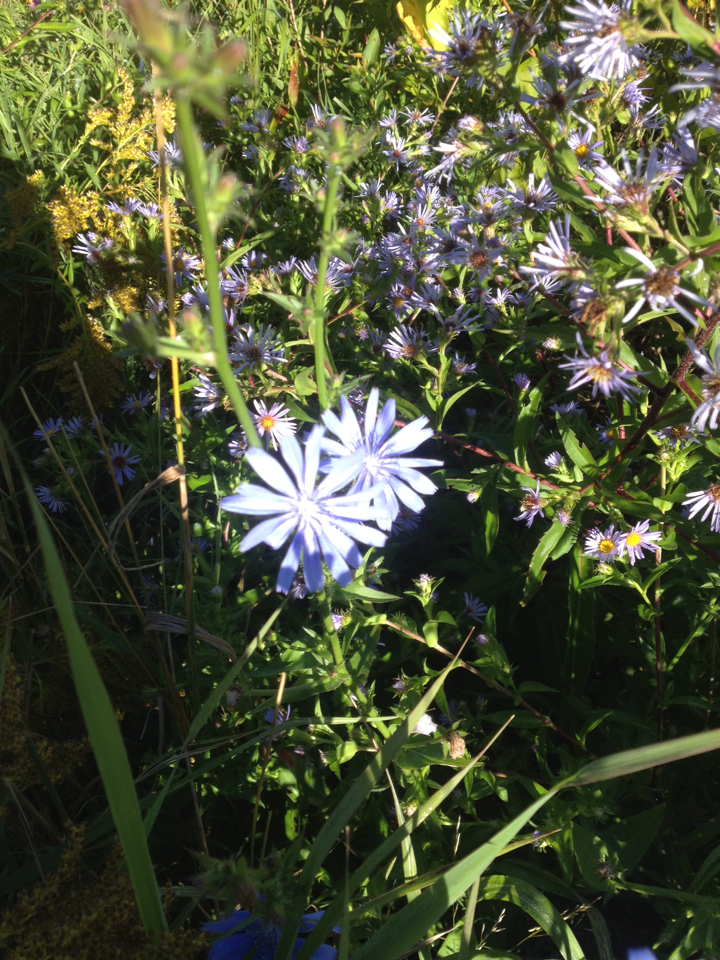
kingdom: Plantae
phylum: Tracheophyta
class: Magnoliopsida
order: Asterales
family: Asteraceae
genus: Cichorium
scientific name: Cichorium intybus
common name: Chicory
